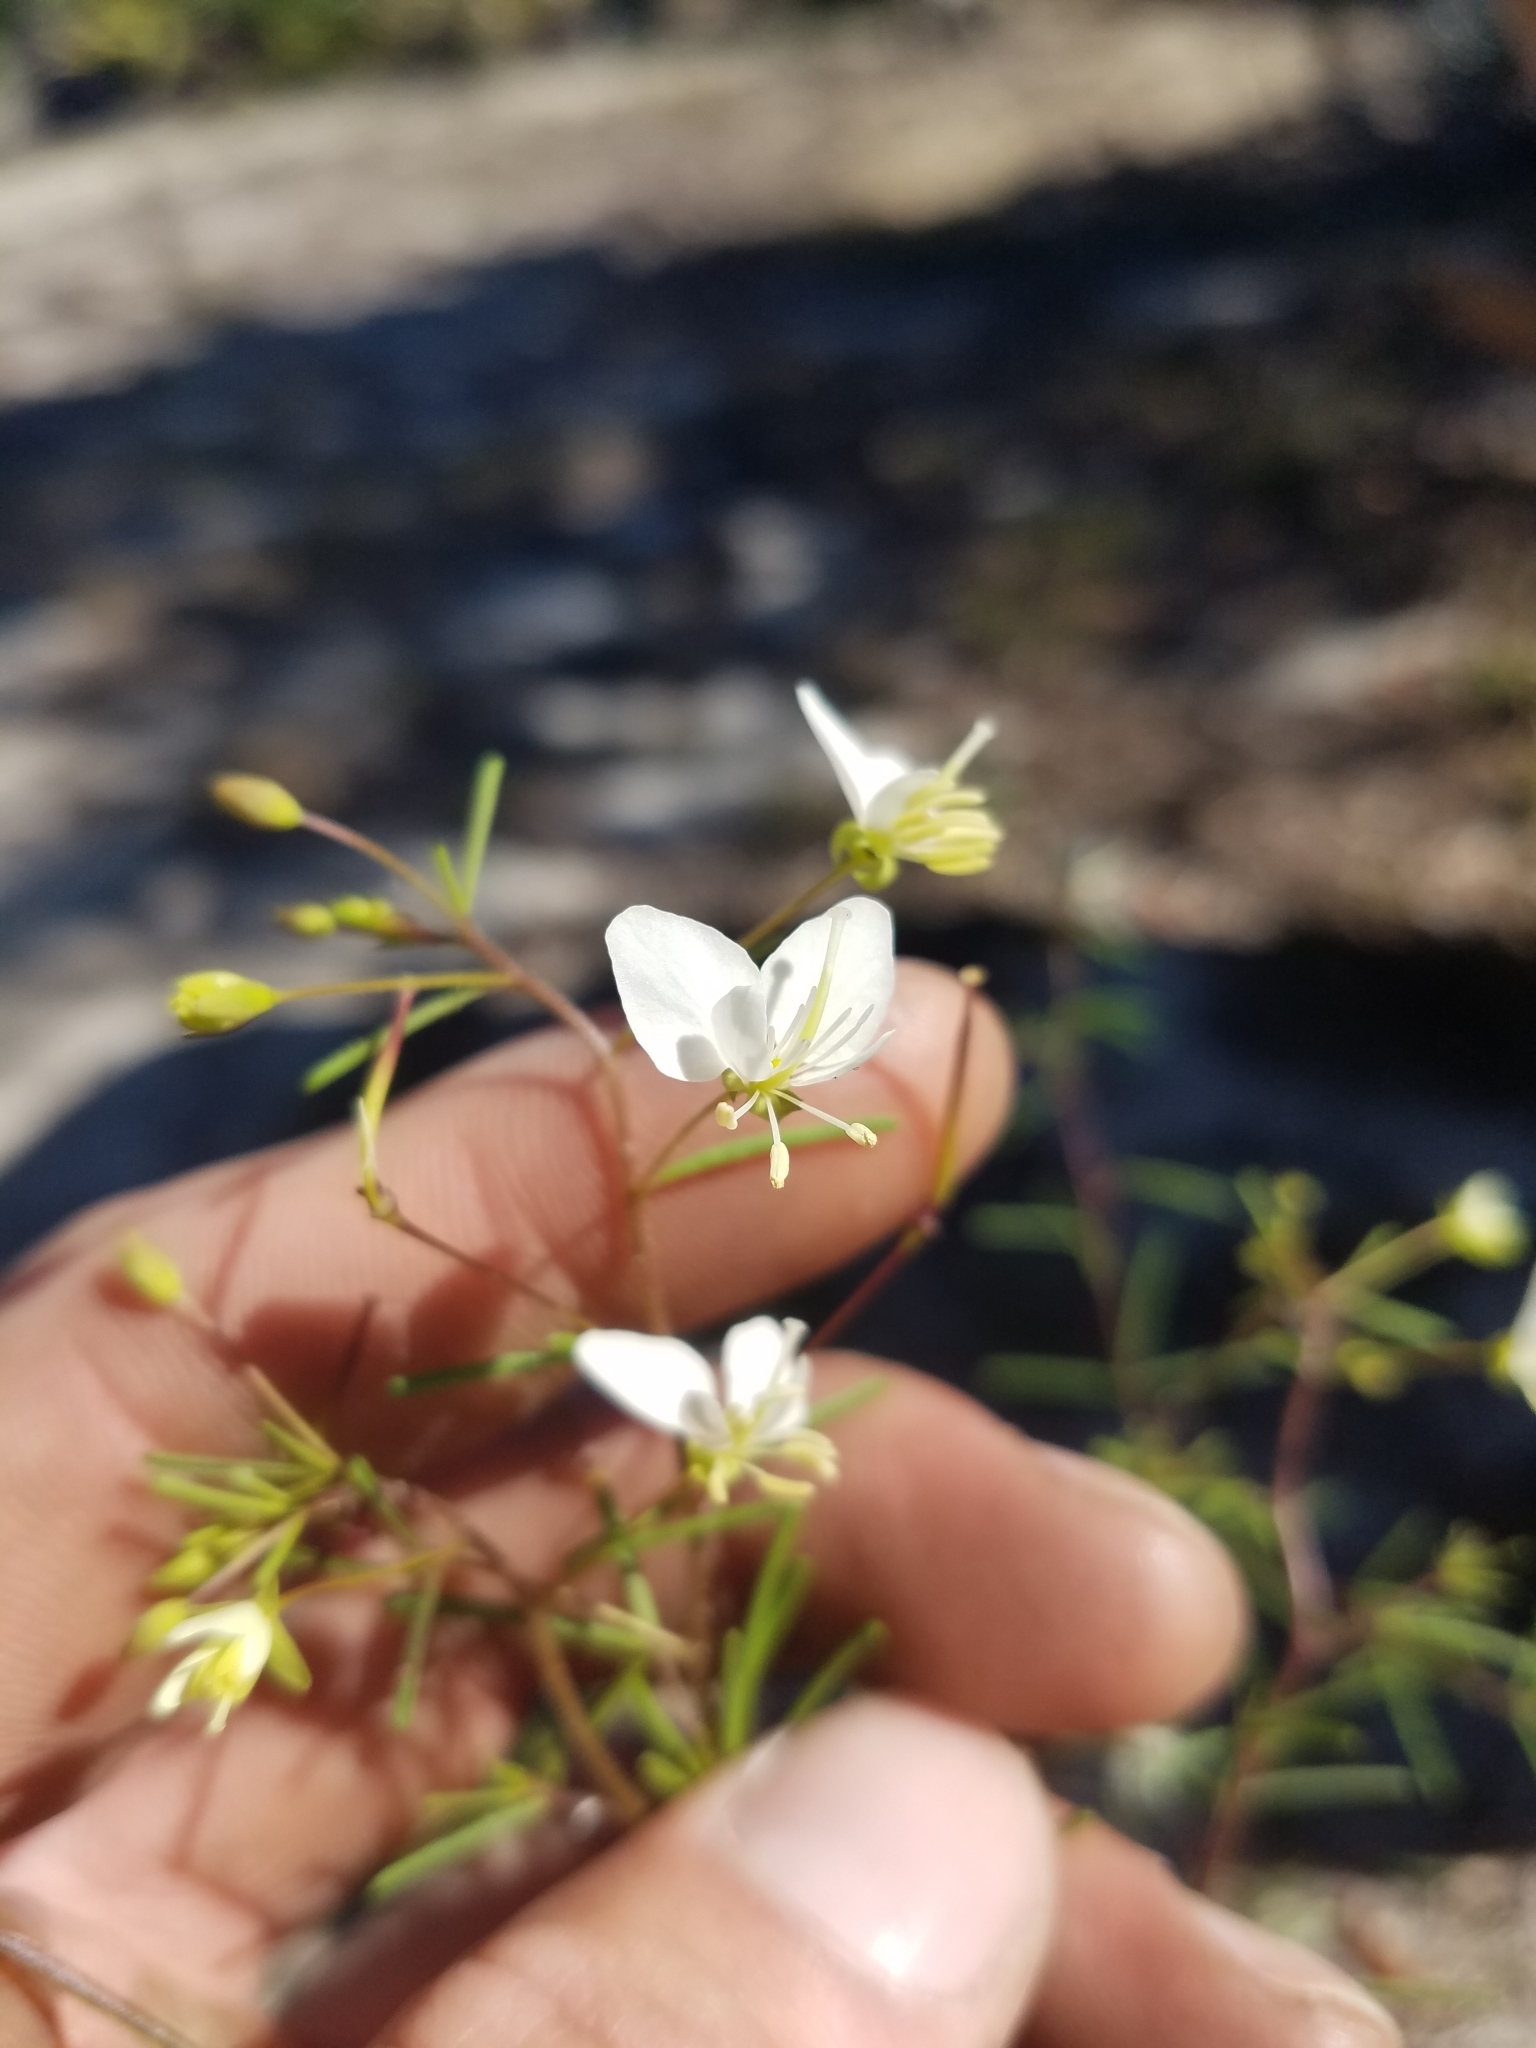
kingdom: Plantae
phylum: Tracheophyta
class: Magnoliopsida
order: Brassicales
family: Cleomaceae
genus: Polanisia
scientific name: Polanisia tenuifolia
